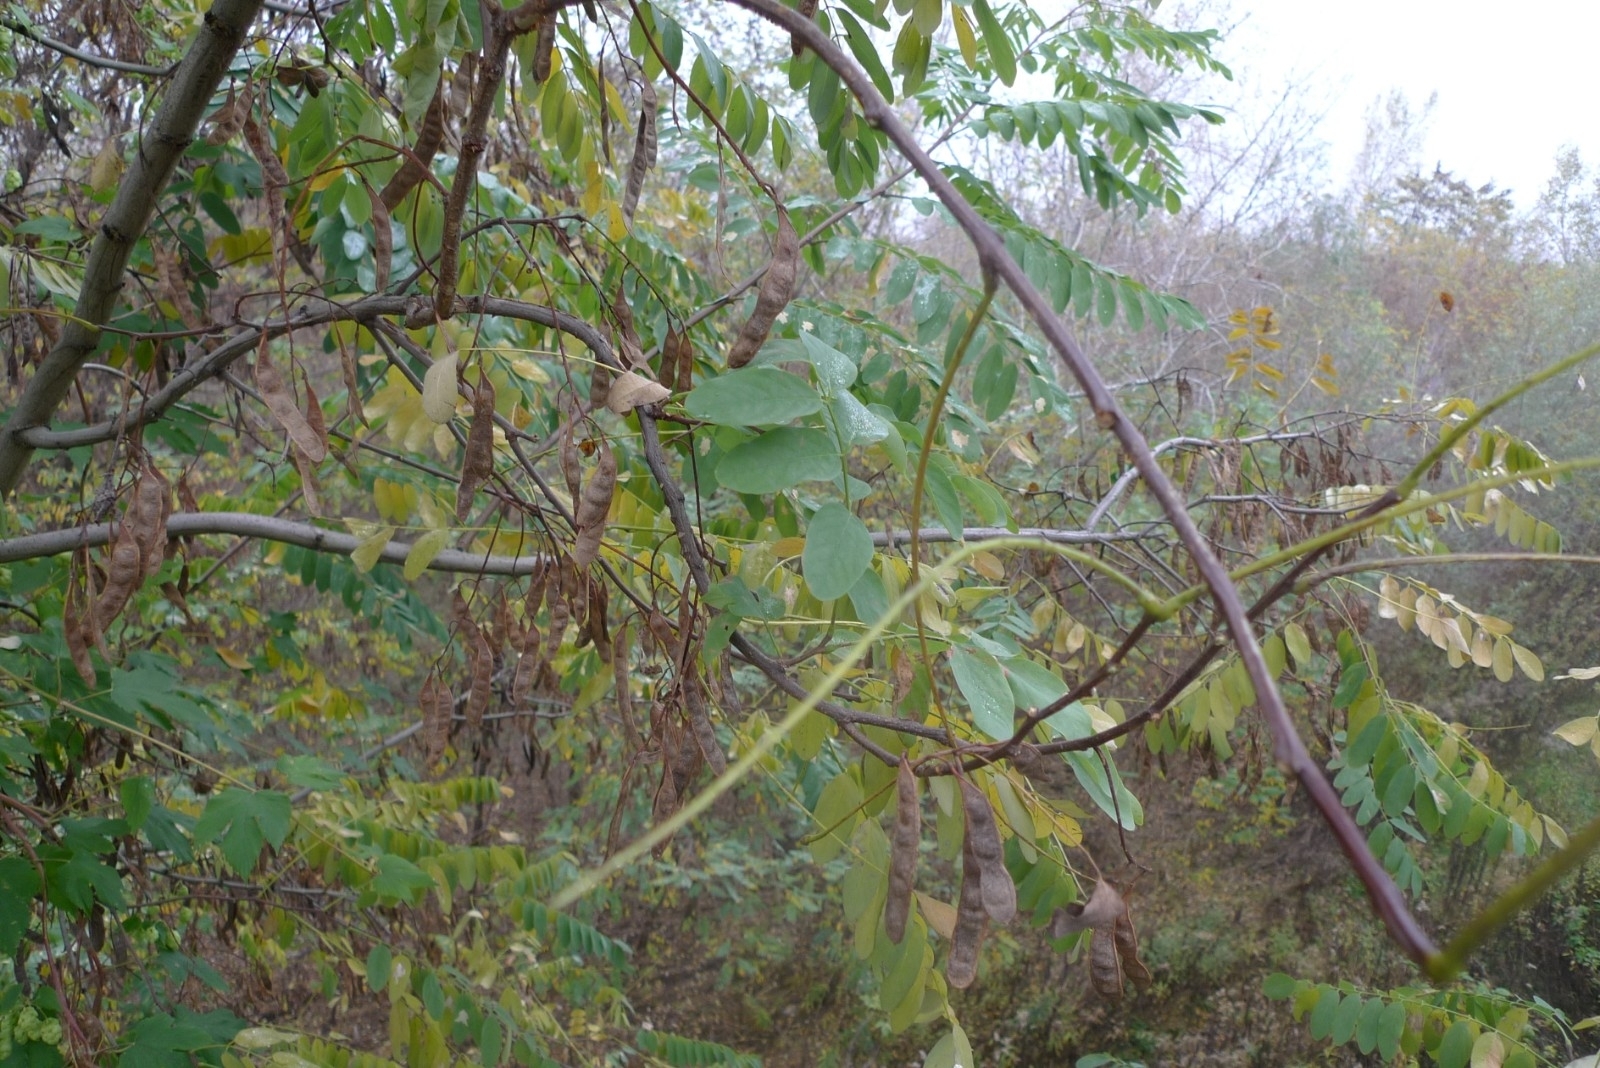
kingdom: Plantae
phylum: Tracheophyta
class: Magnoliopsida
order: Fabales
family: Fabaceae
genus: Robinia
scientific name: Robinia pseudoacacia
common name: Black locust
